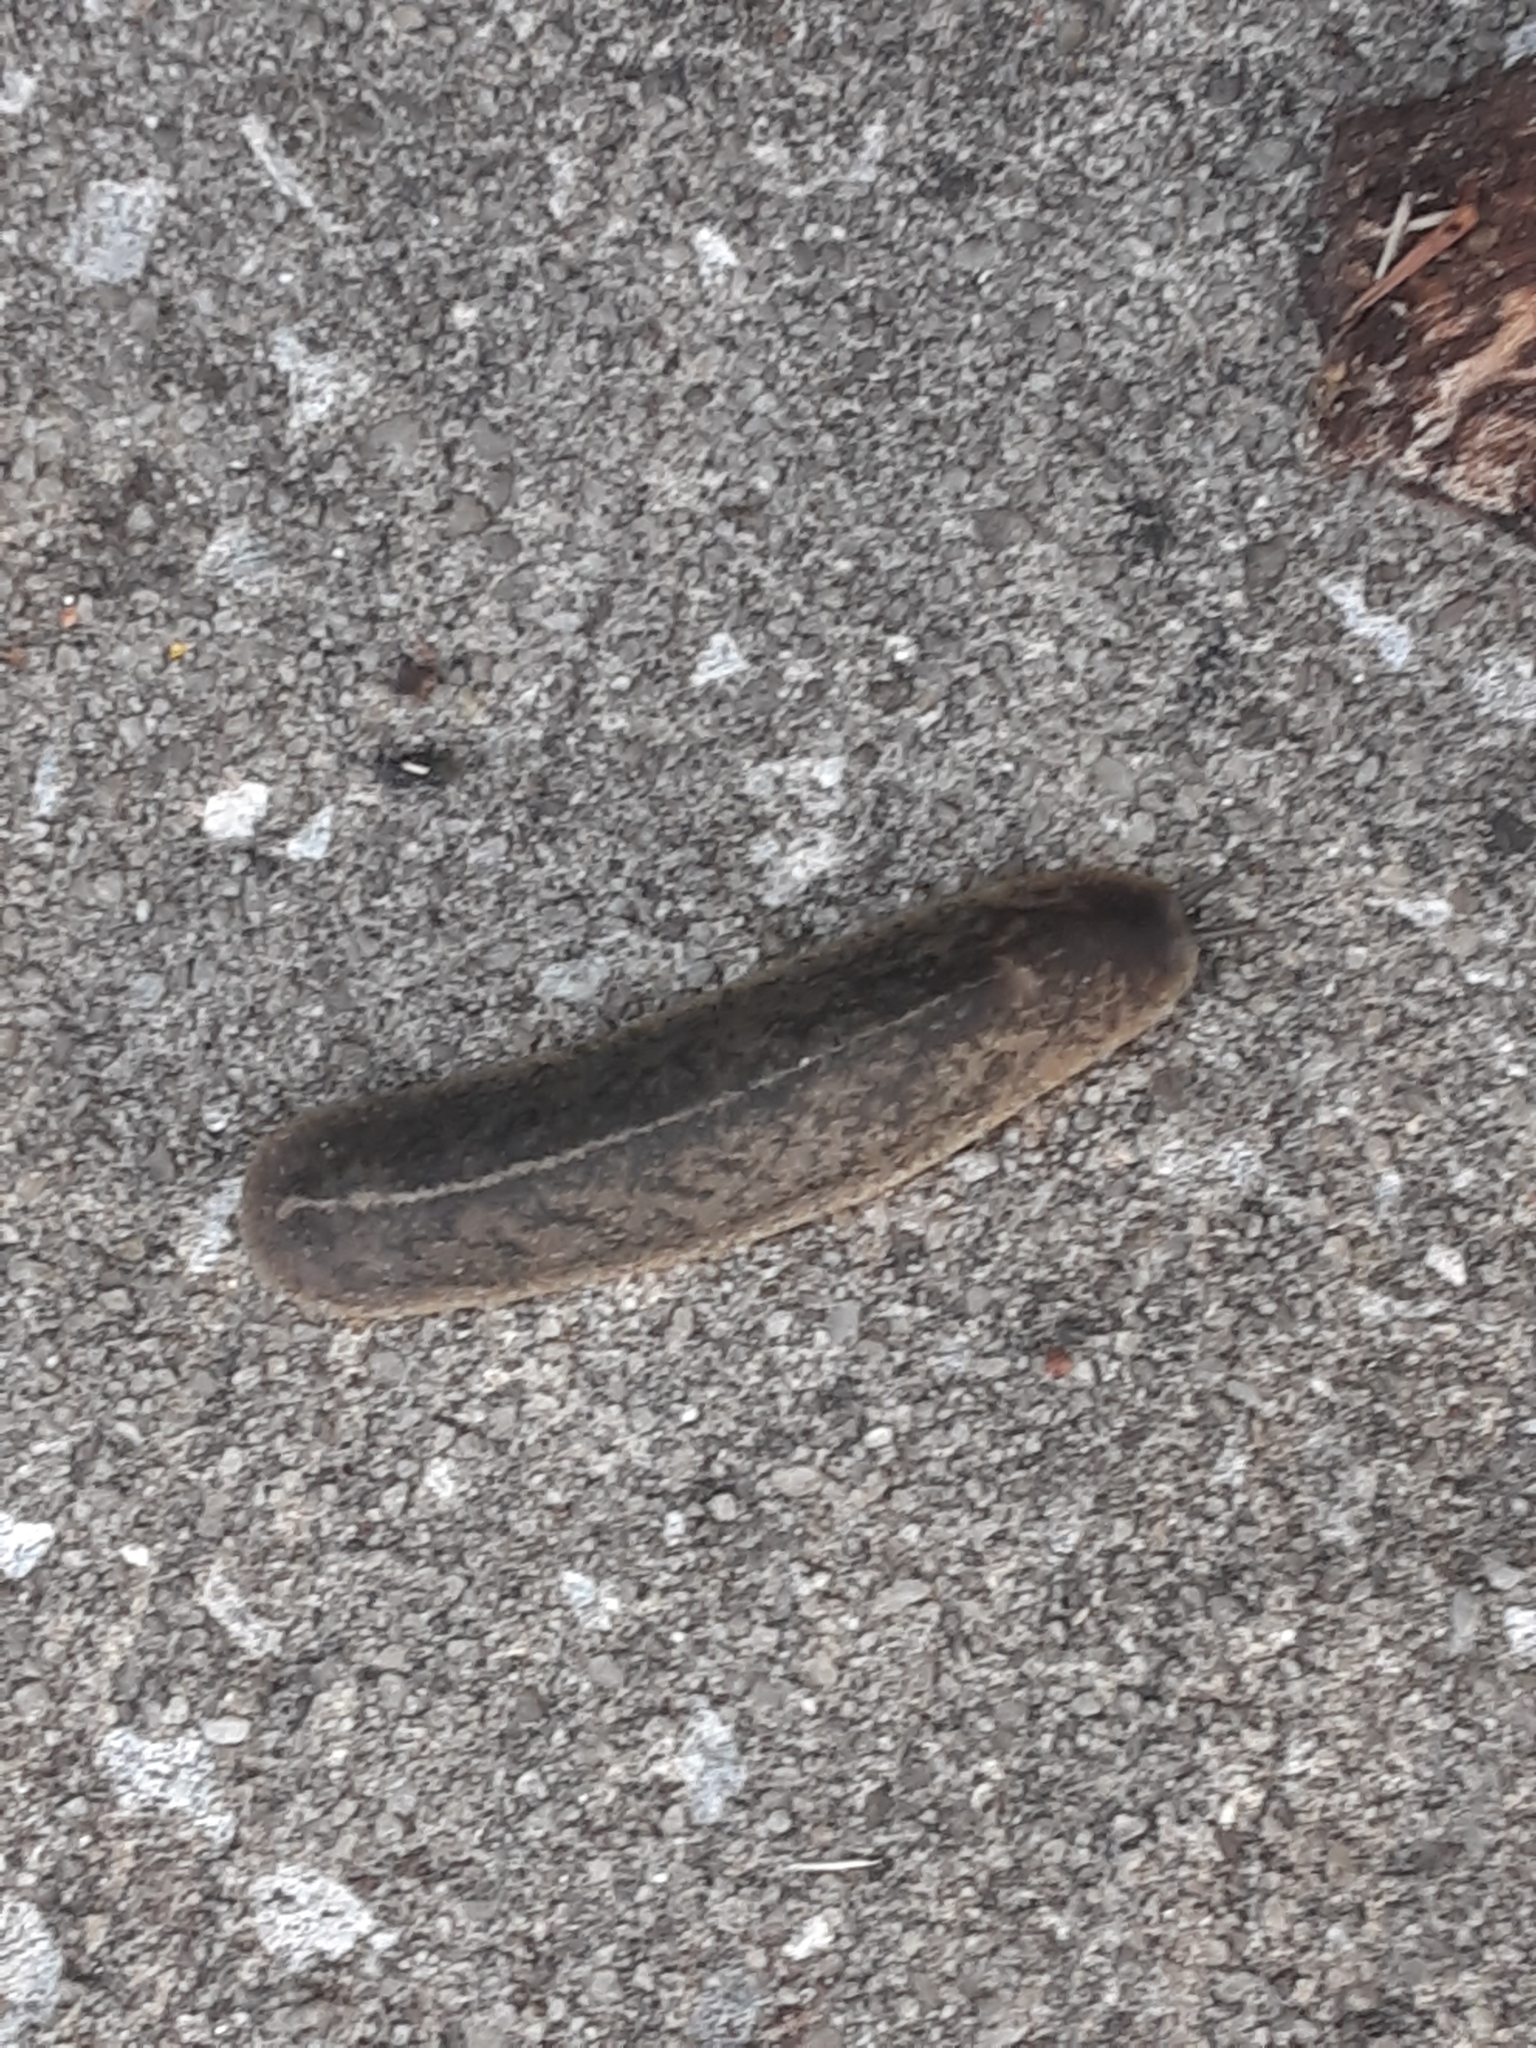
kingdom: Animalia
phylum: Mollusca
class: Gastropoda
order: Systellommatophora
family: Veronicellidae
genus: Leidyula
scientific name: Leidyula floridana
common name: Florida leatherleaf
